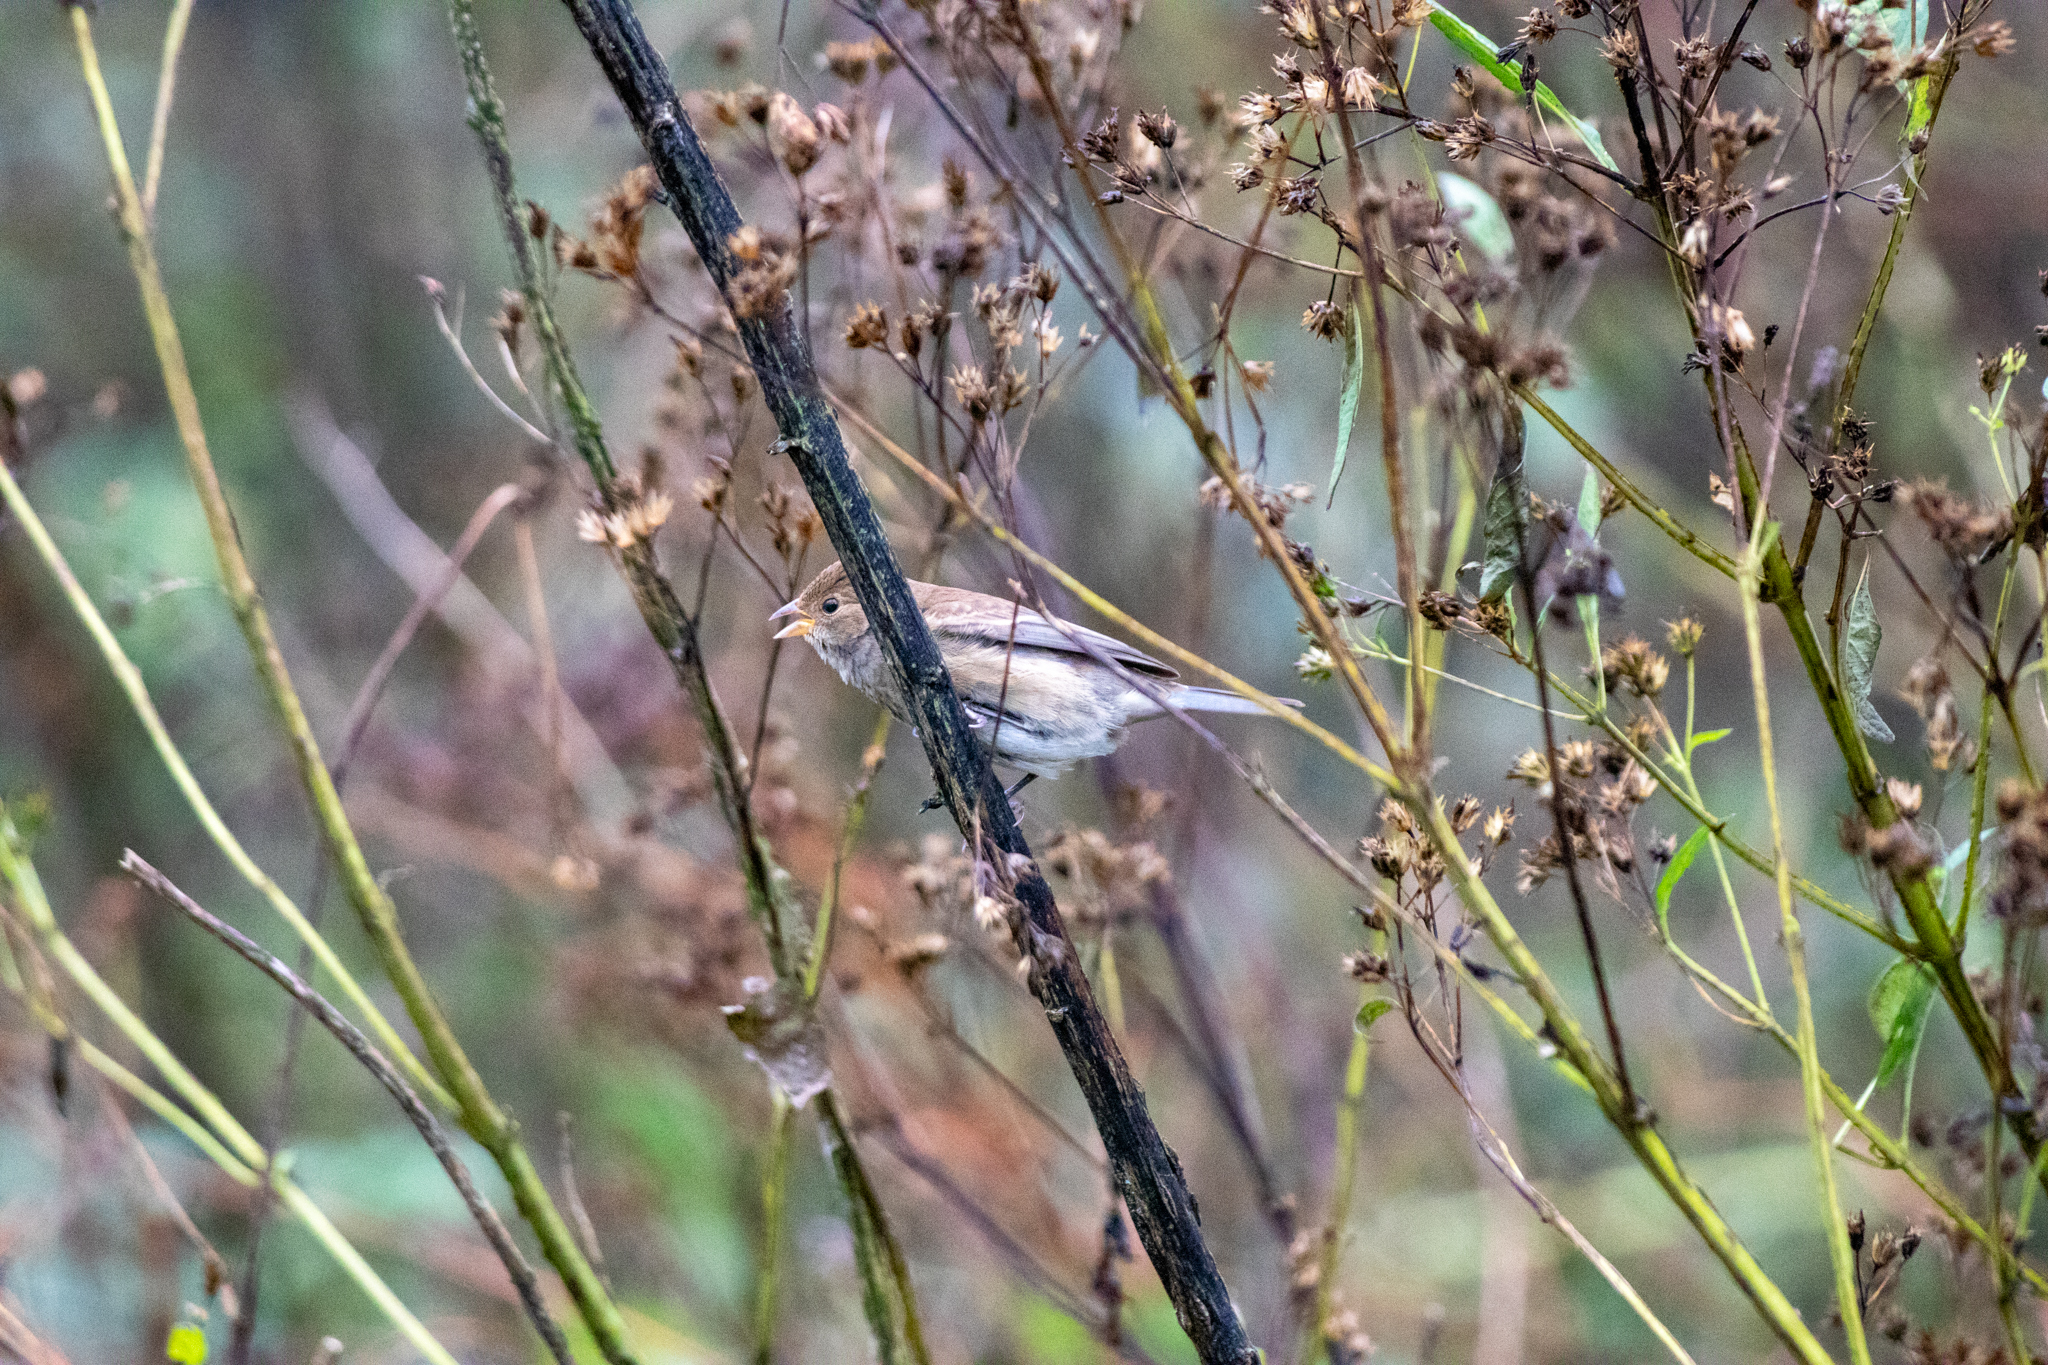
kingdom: Animalia
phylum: Chordata
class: Aves
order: Passeriformes
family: Cardinalidae
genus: Passerina
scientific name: Passerina cyanea
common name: Indigo bunting
